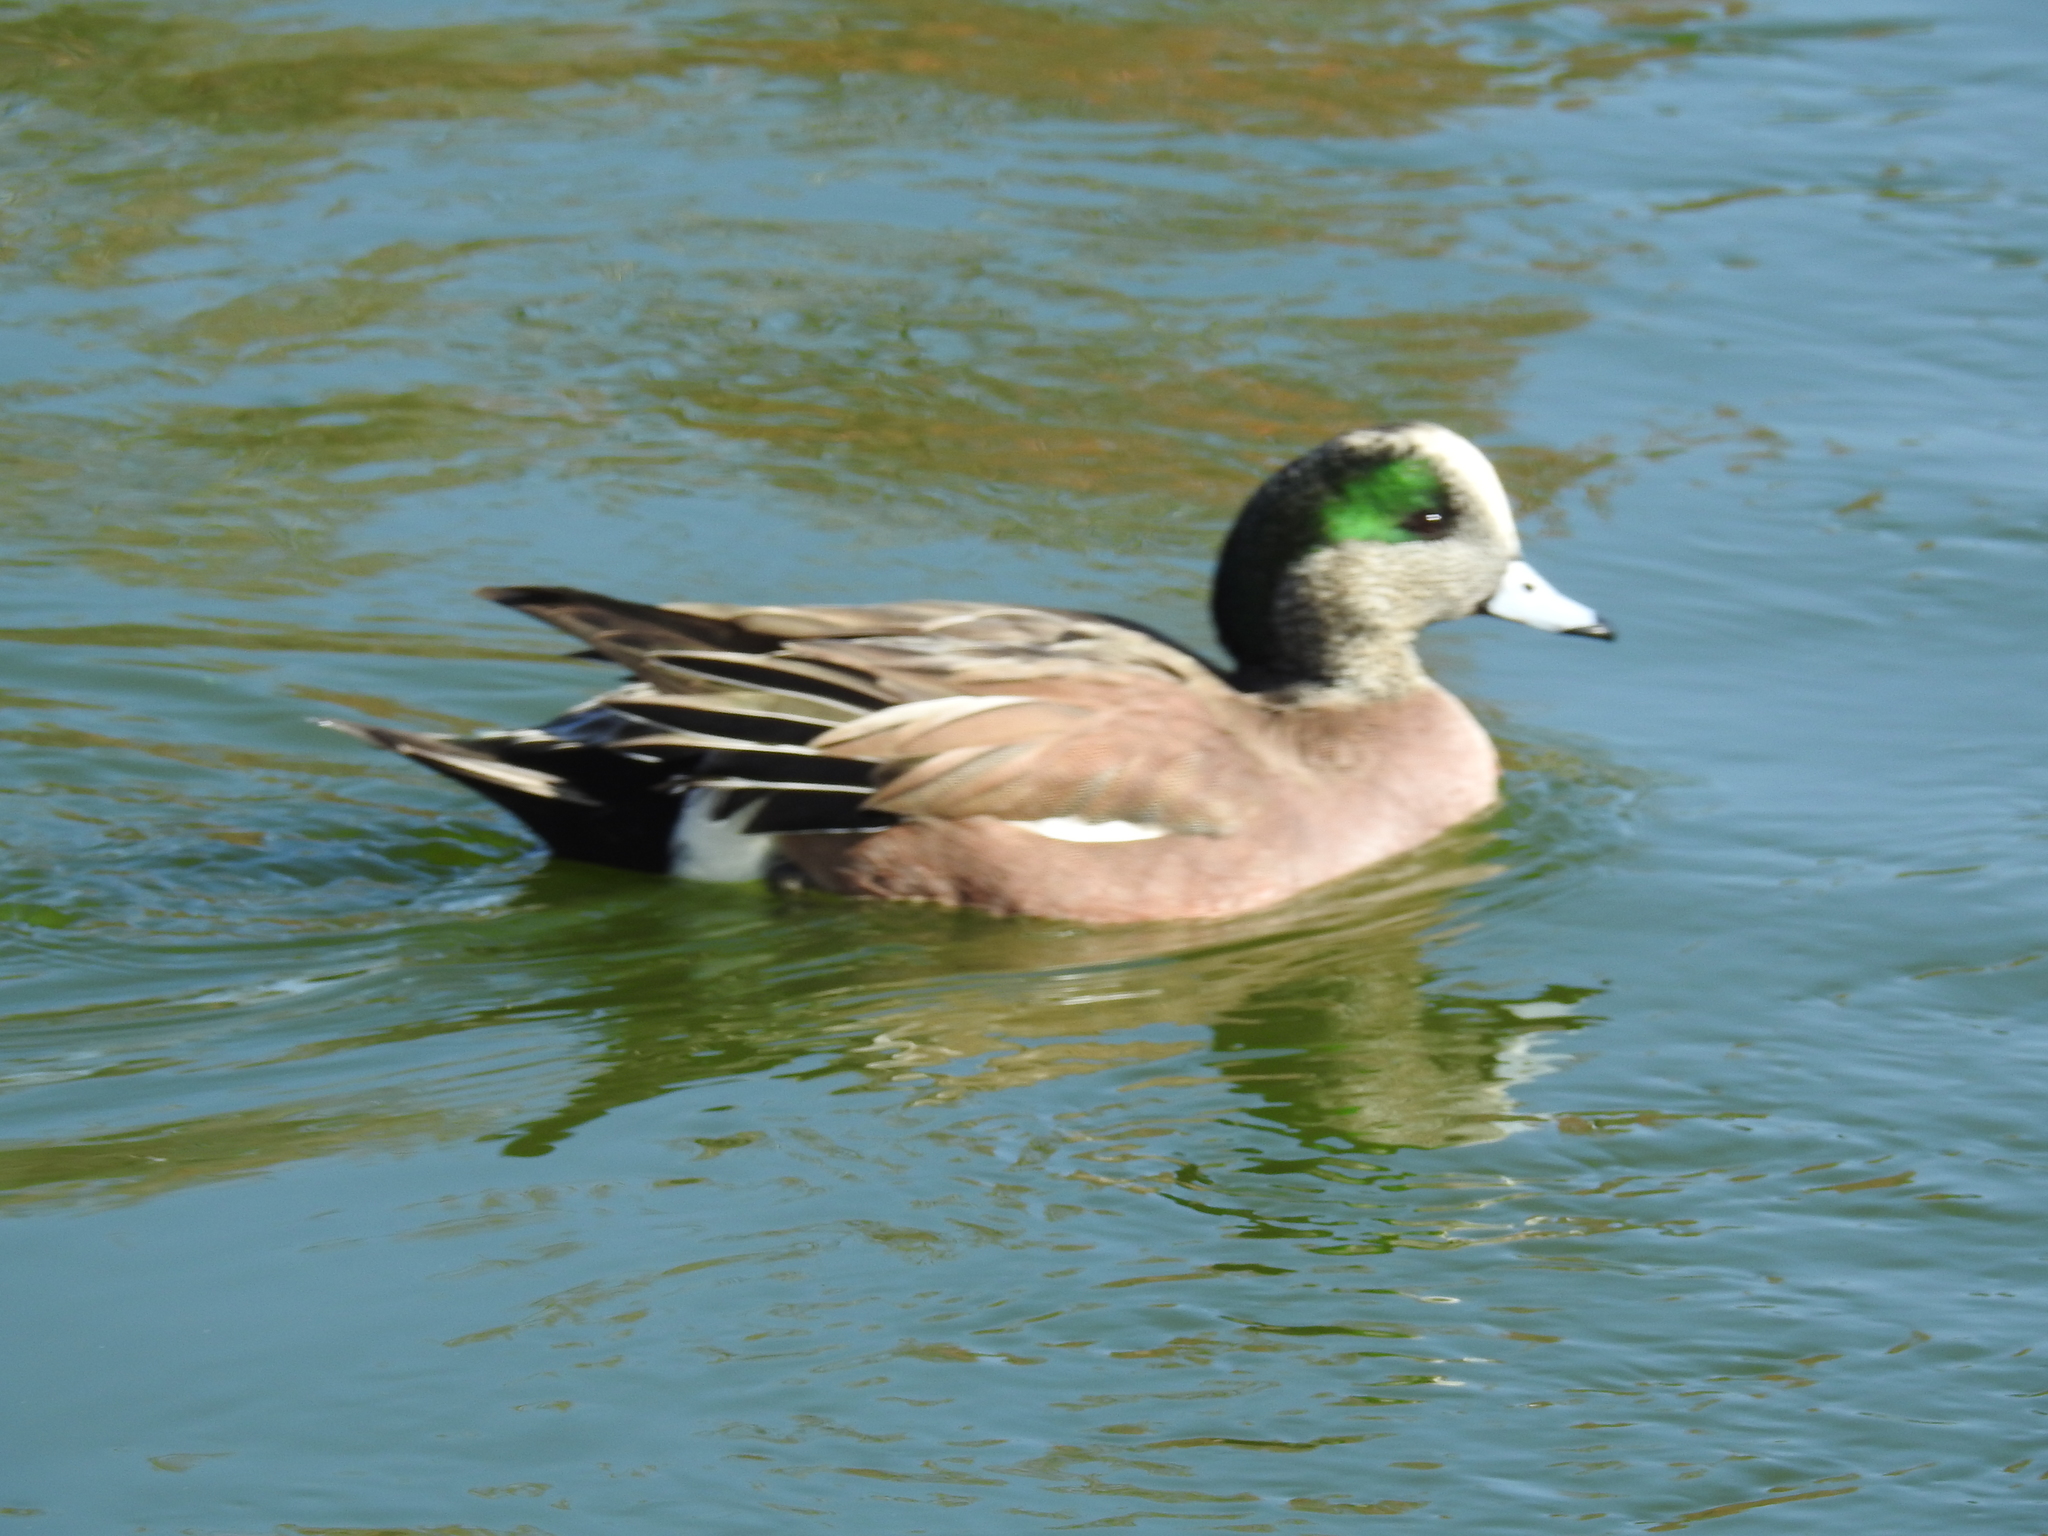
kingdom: Animalia
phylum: Chordata
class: Aves
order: Anseriformes
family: Anatidae
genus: Mareca
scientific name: Mareca americana
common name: American wigeon
